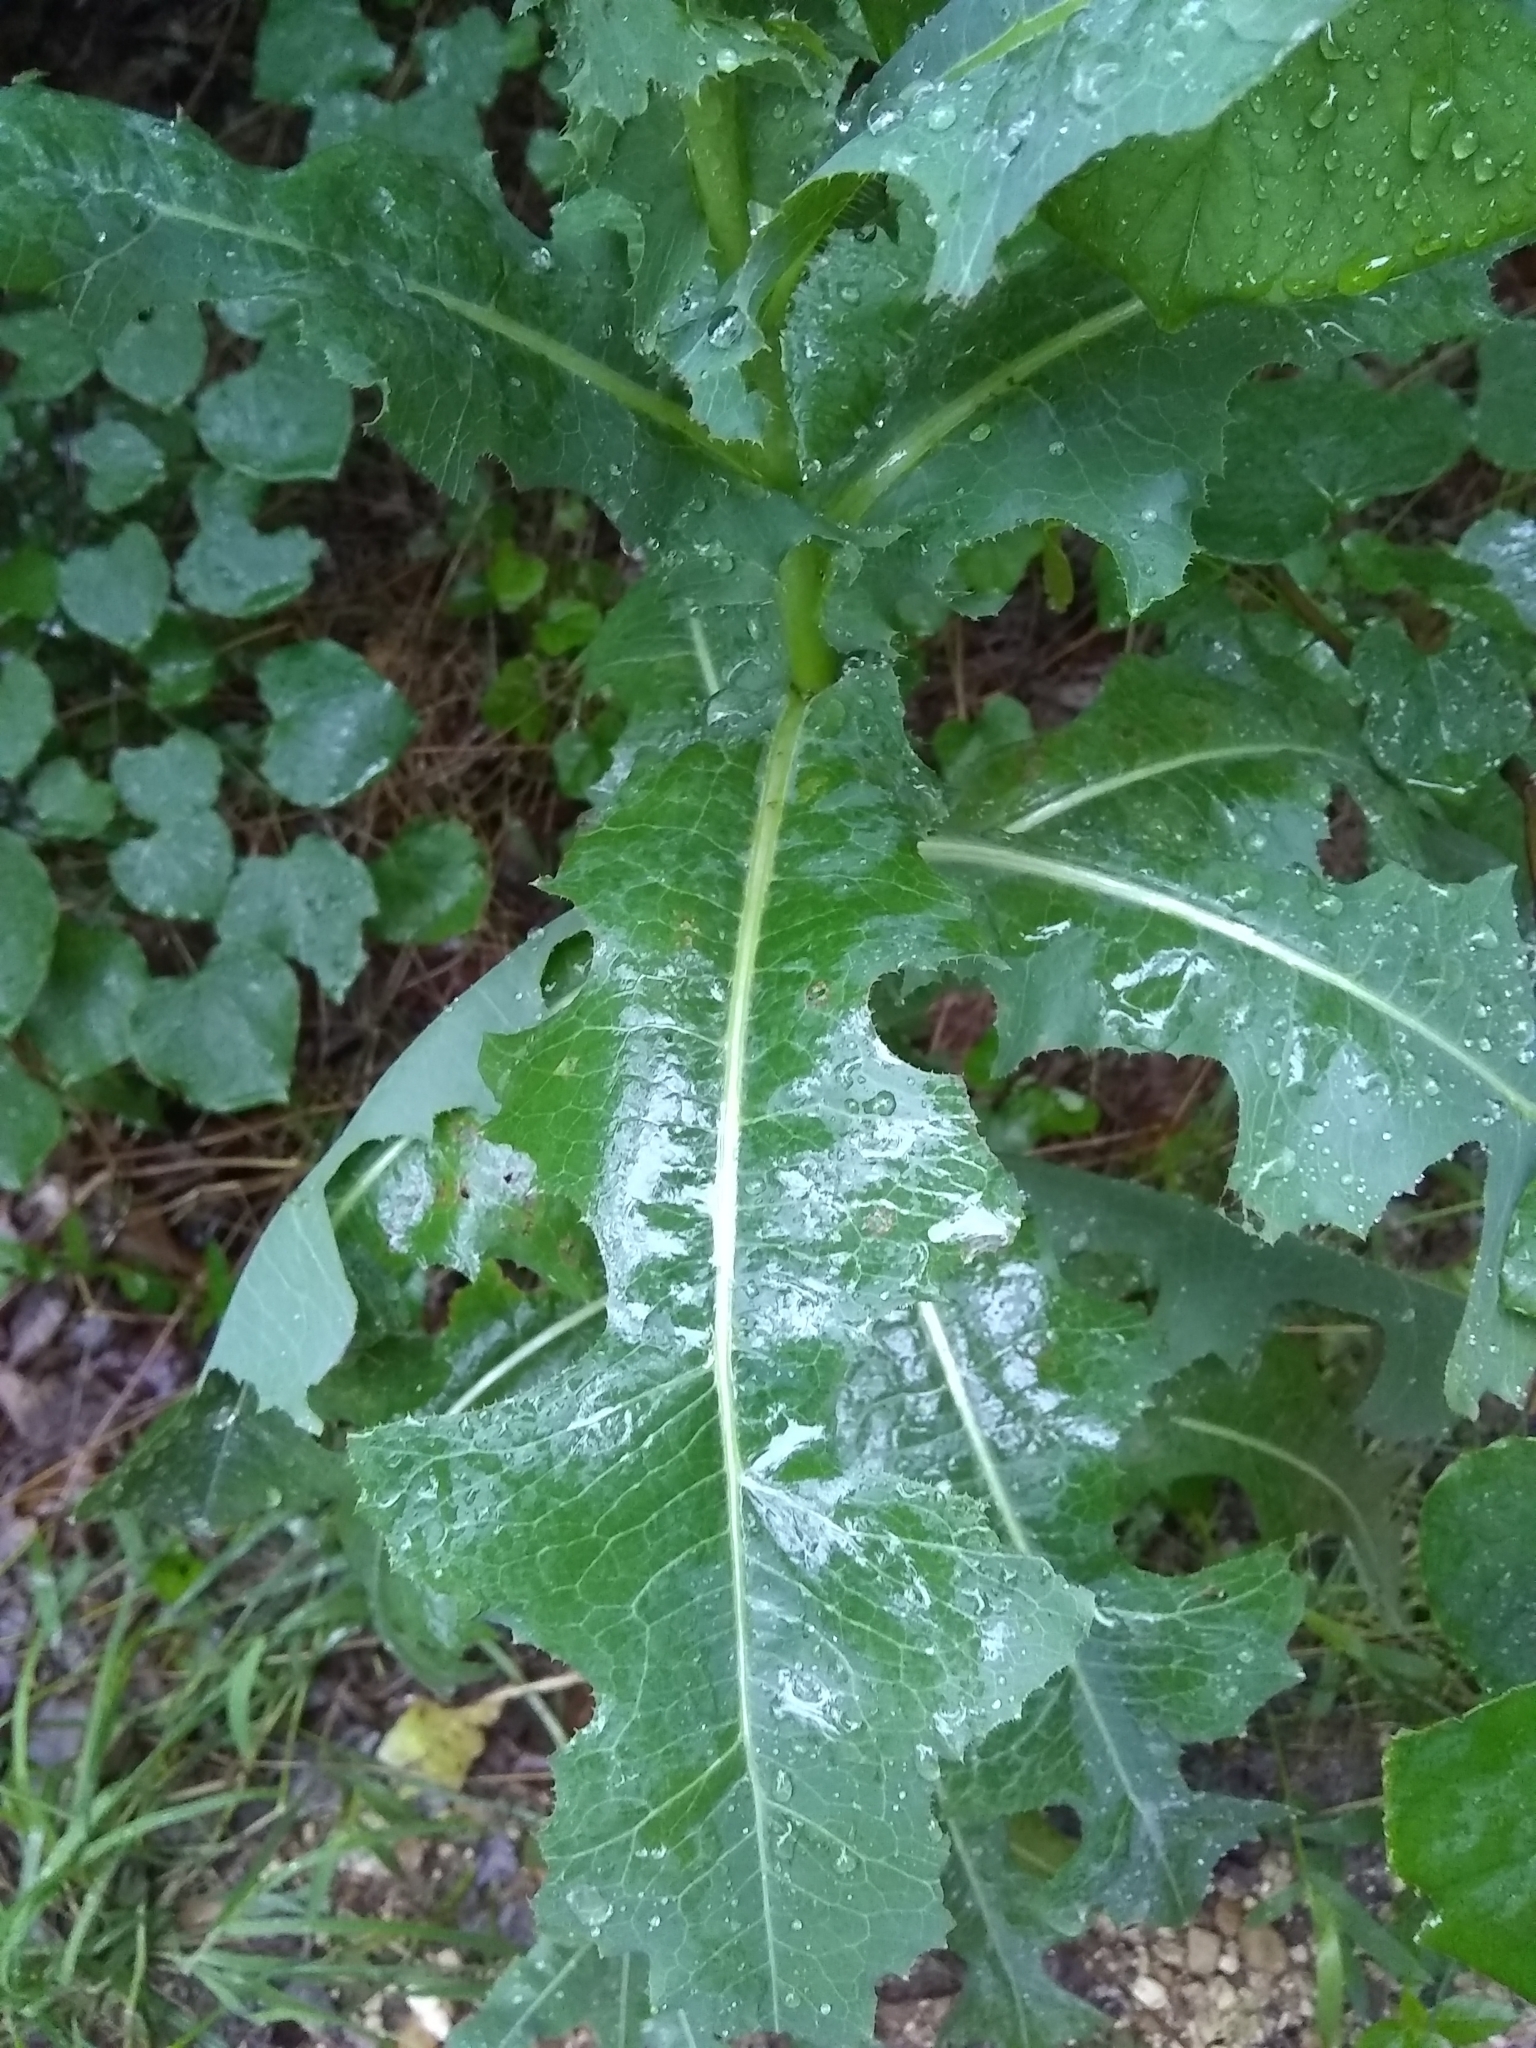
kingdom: Plantae
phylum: Tracheophyta
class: Magnoliopsida
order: Asterales
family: Asteraceae
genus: Lactuca
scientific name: Lactuca serriola
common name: Prickly lettuce
